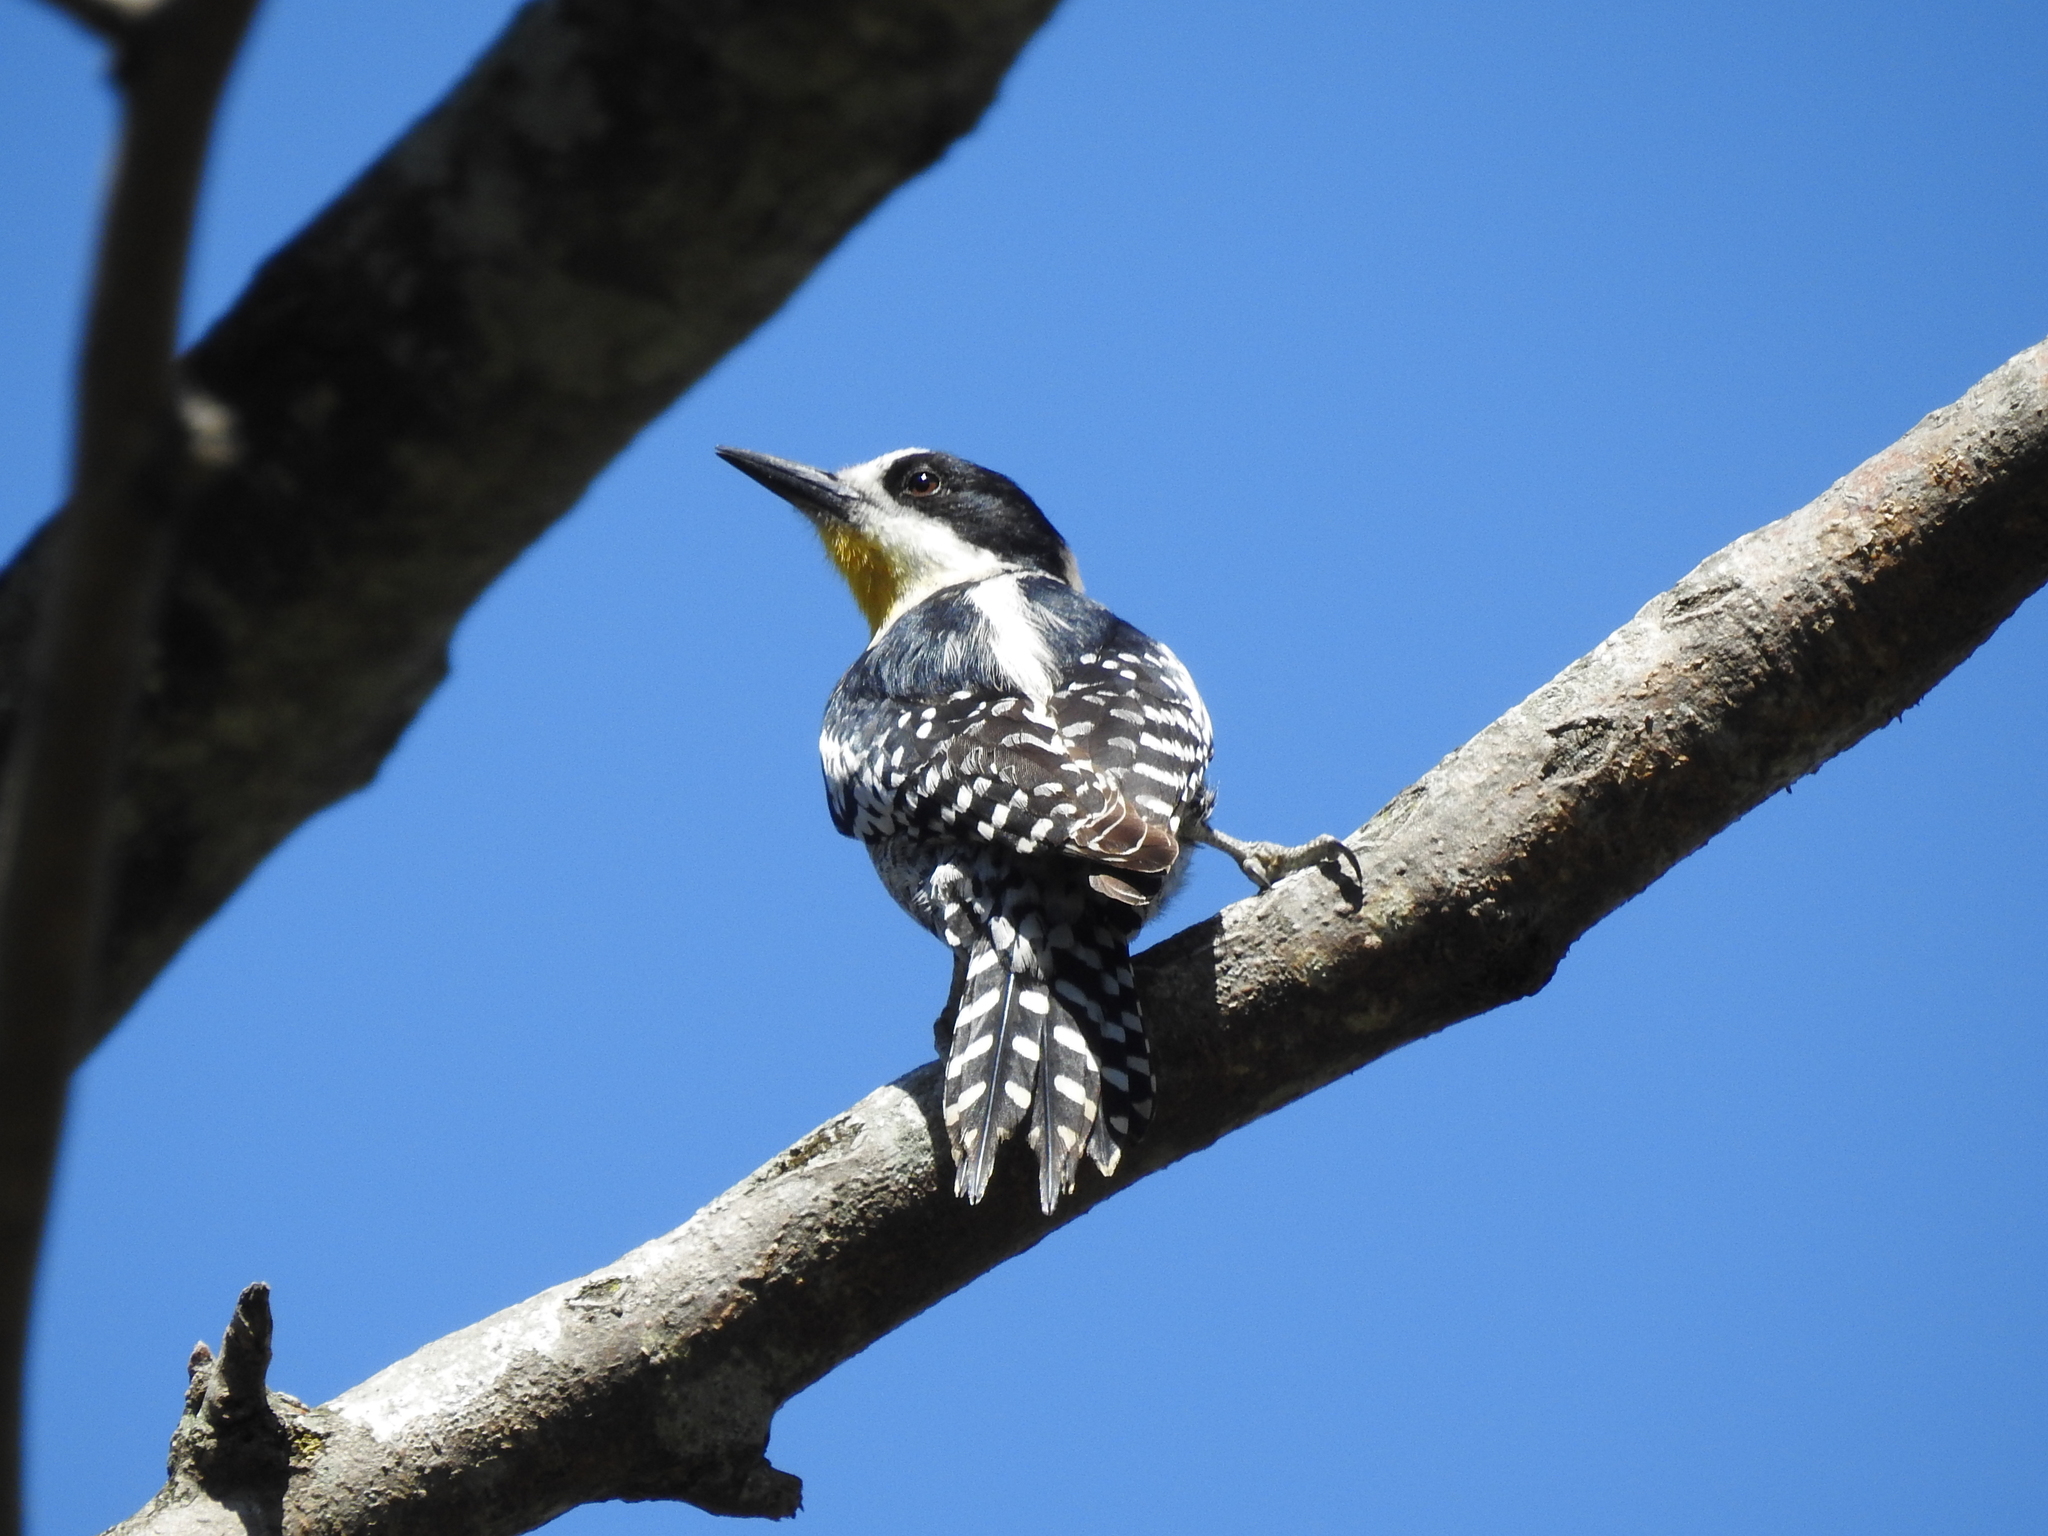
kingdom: Animalia
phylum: Chordata
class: Aves
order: Piciformes
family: Picidae
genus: Melanerpes
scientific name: Melanerpes cactorum
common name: White-fronted woodpecker
